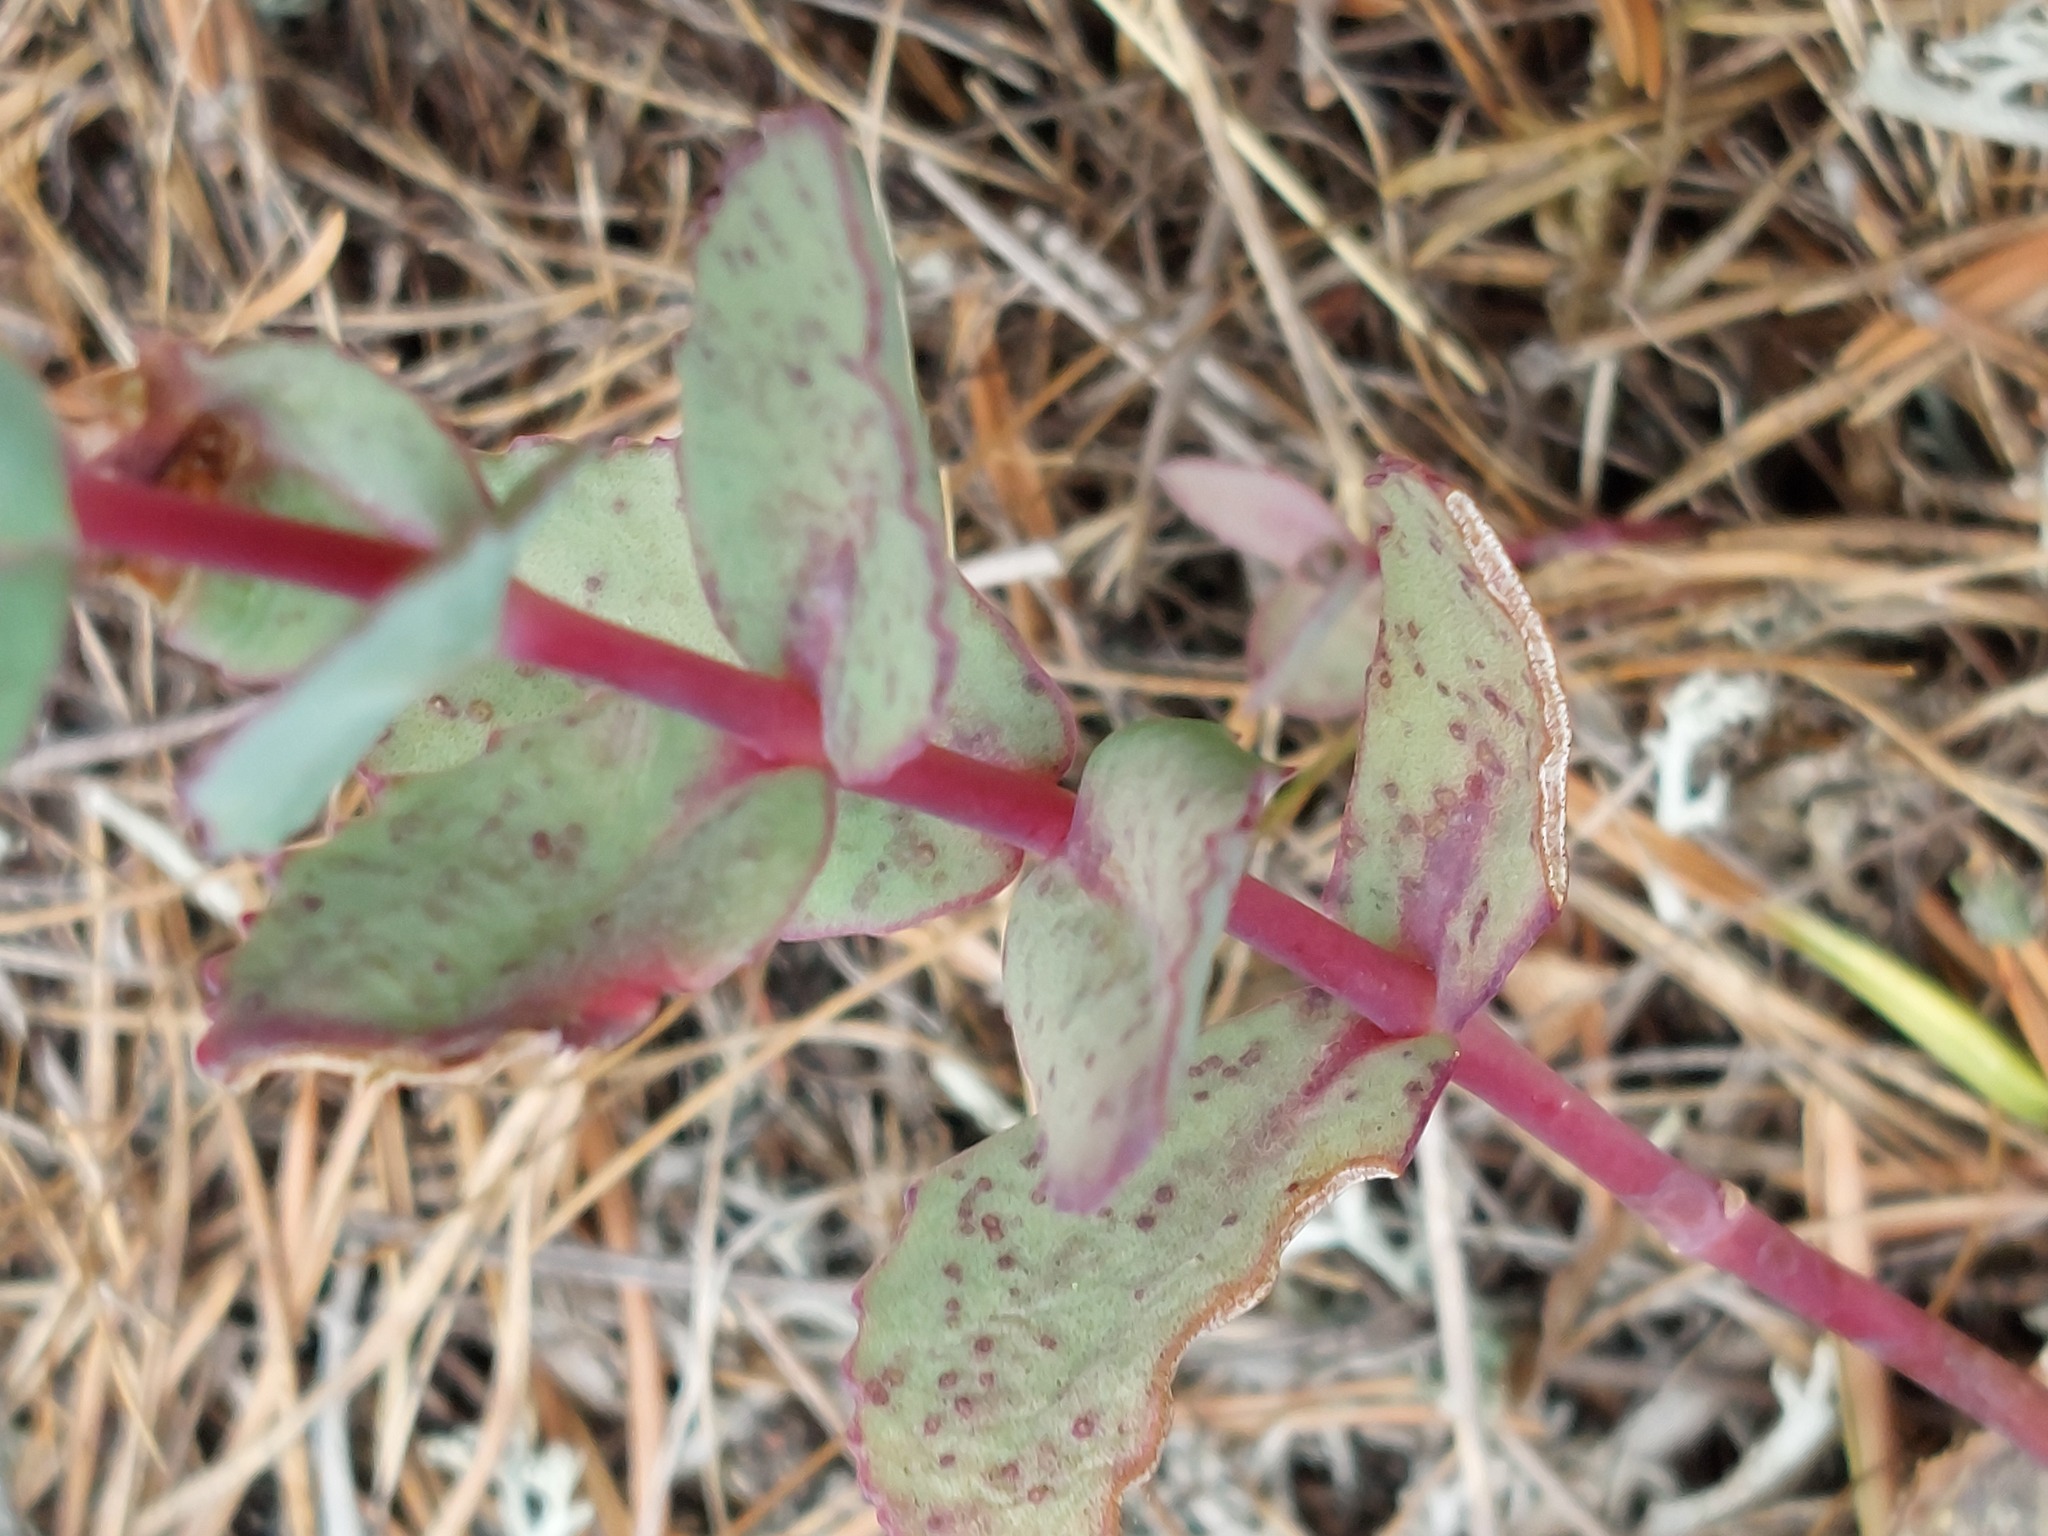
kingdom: Plantae
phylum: Tracheophyta
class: Magnoliopsida
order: Saxifragales
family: Crassulaceae
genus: Hylotelephium
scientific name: Hylotelephium maximum
